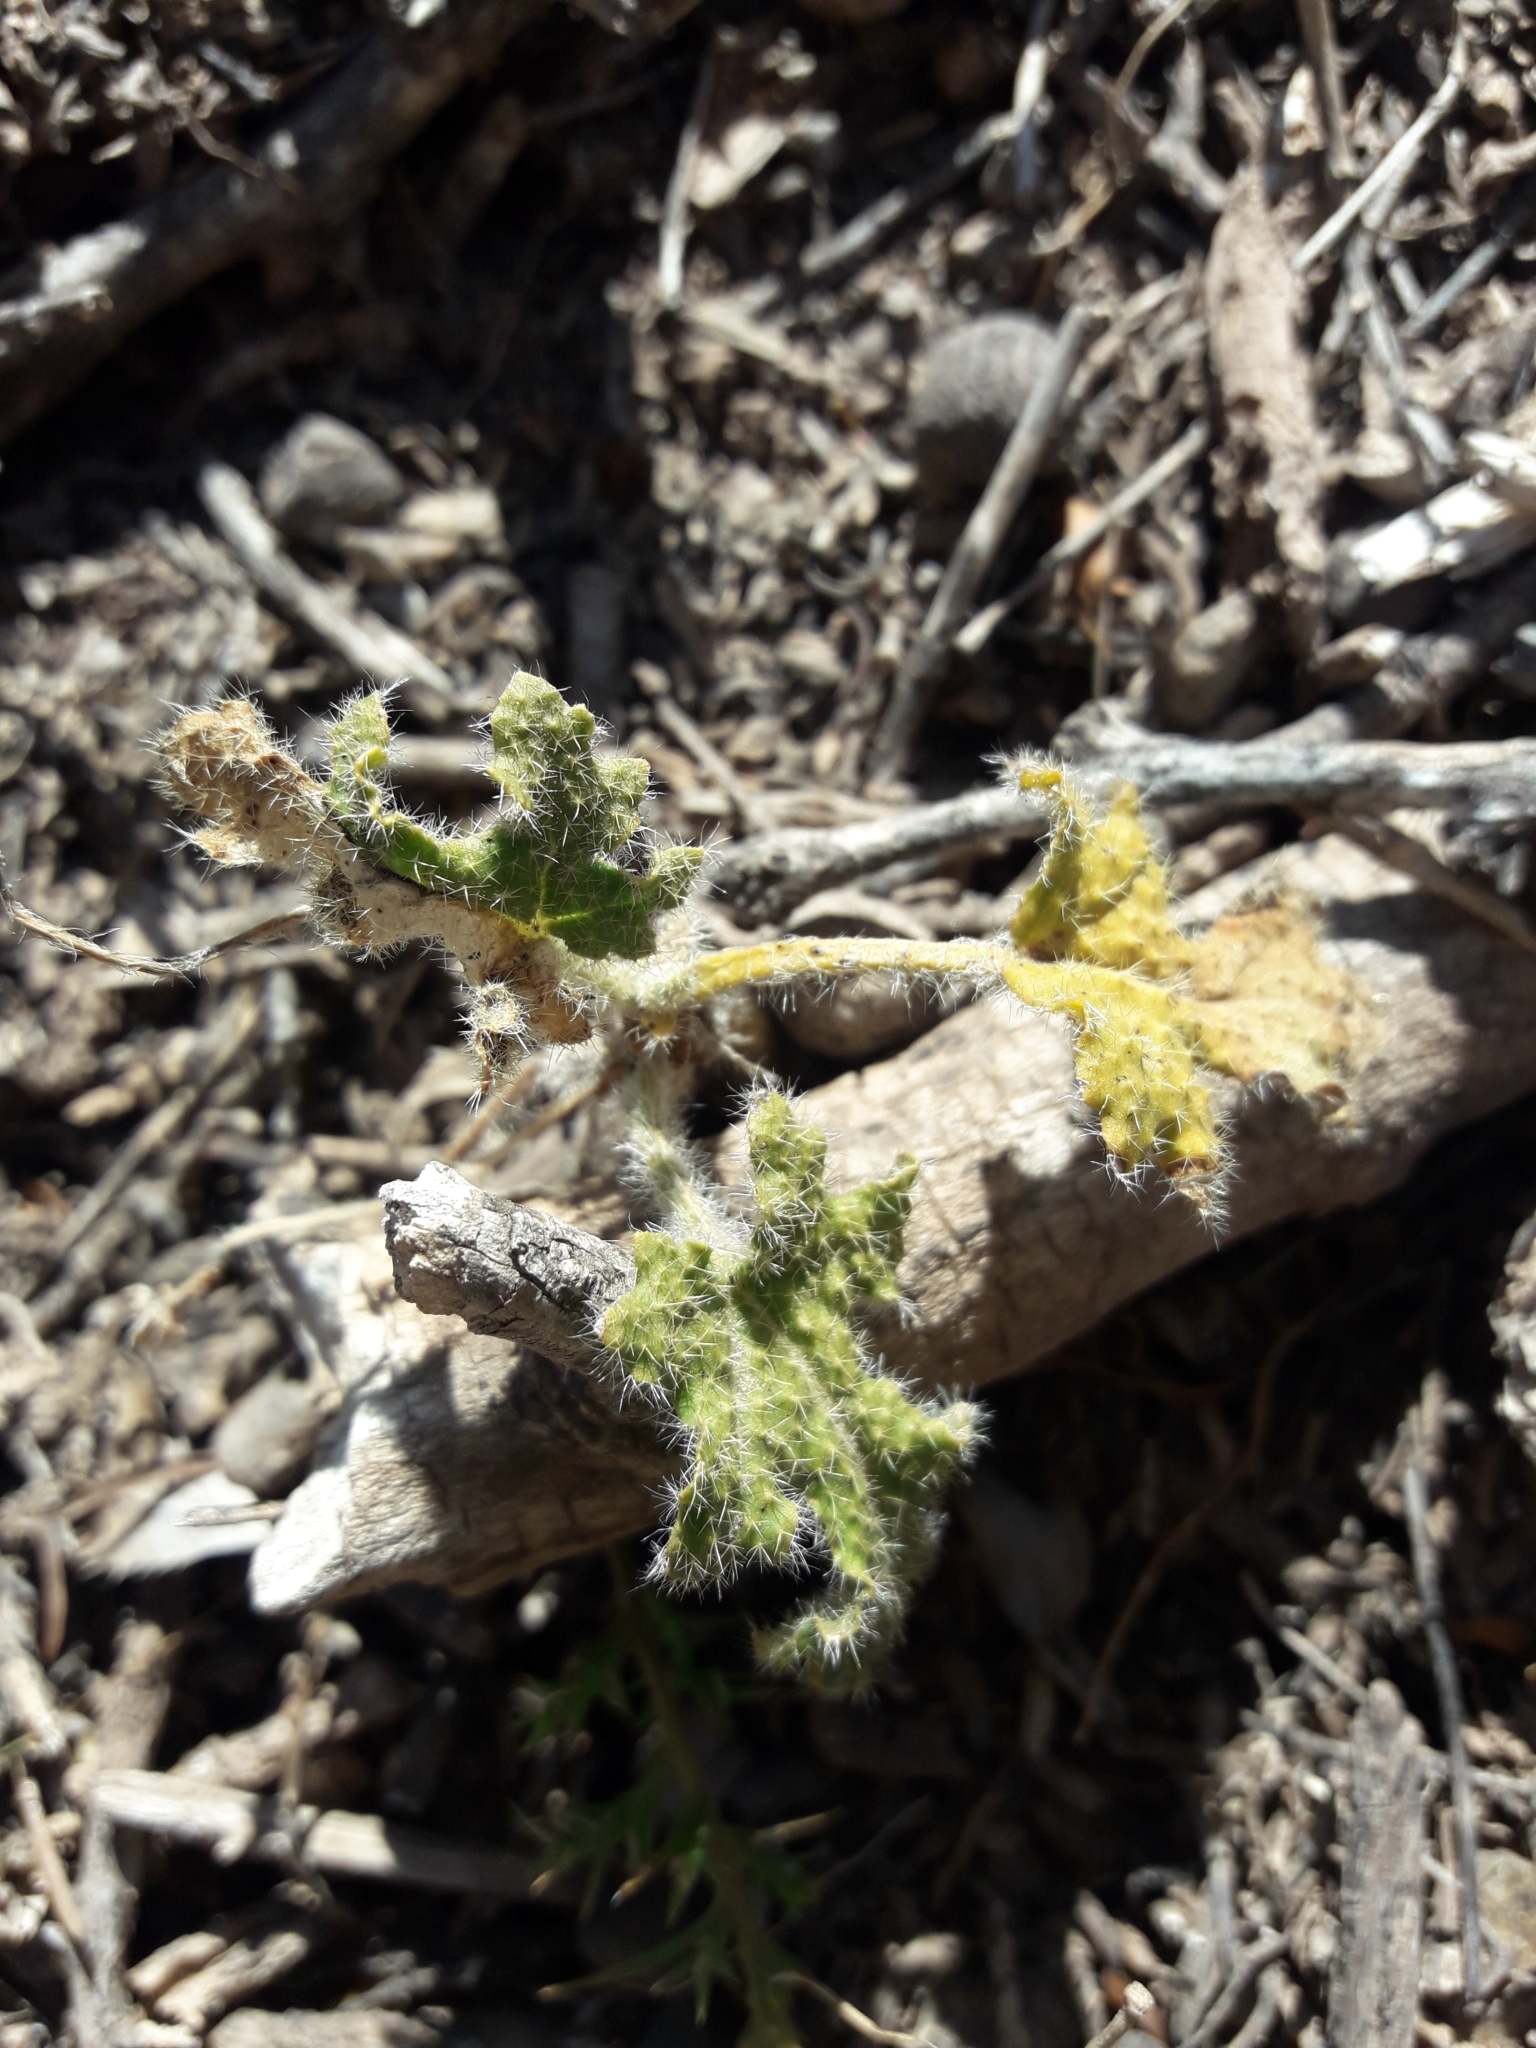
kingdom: Plantae
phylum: Tracheophyta
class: Magnoliopsida
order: Malvales
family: Malvaceae
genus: Lecanophora
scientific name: Lecanophora heterophylla
